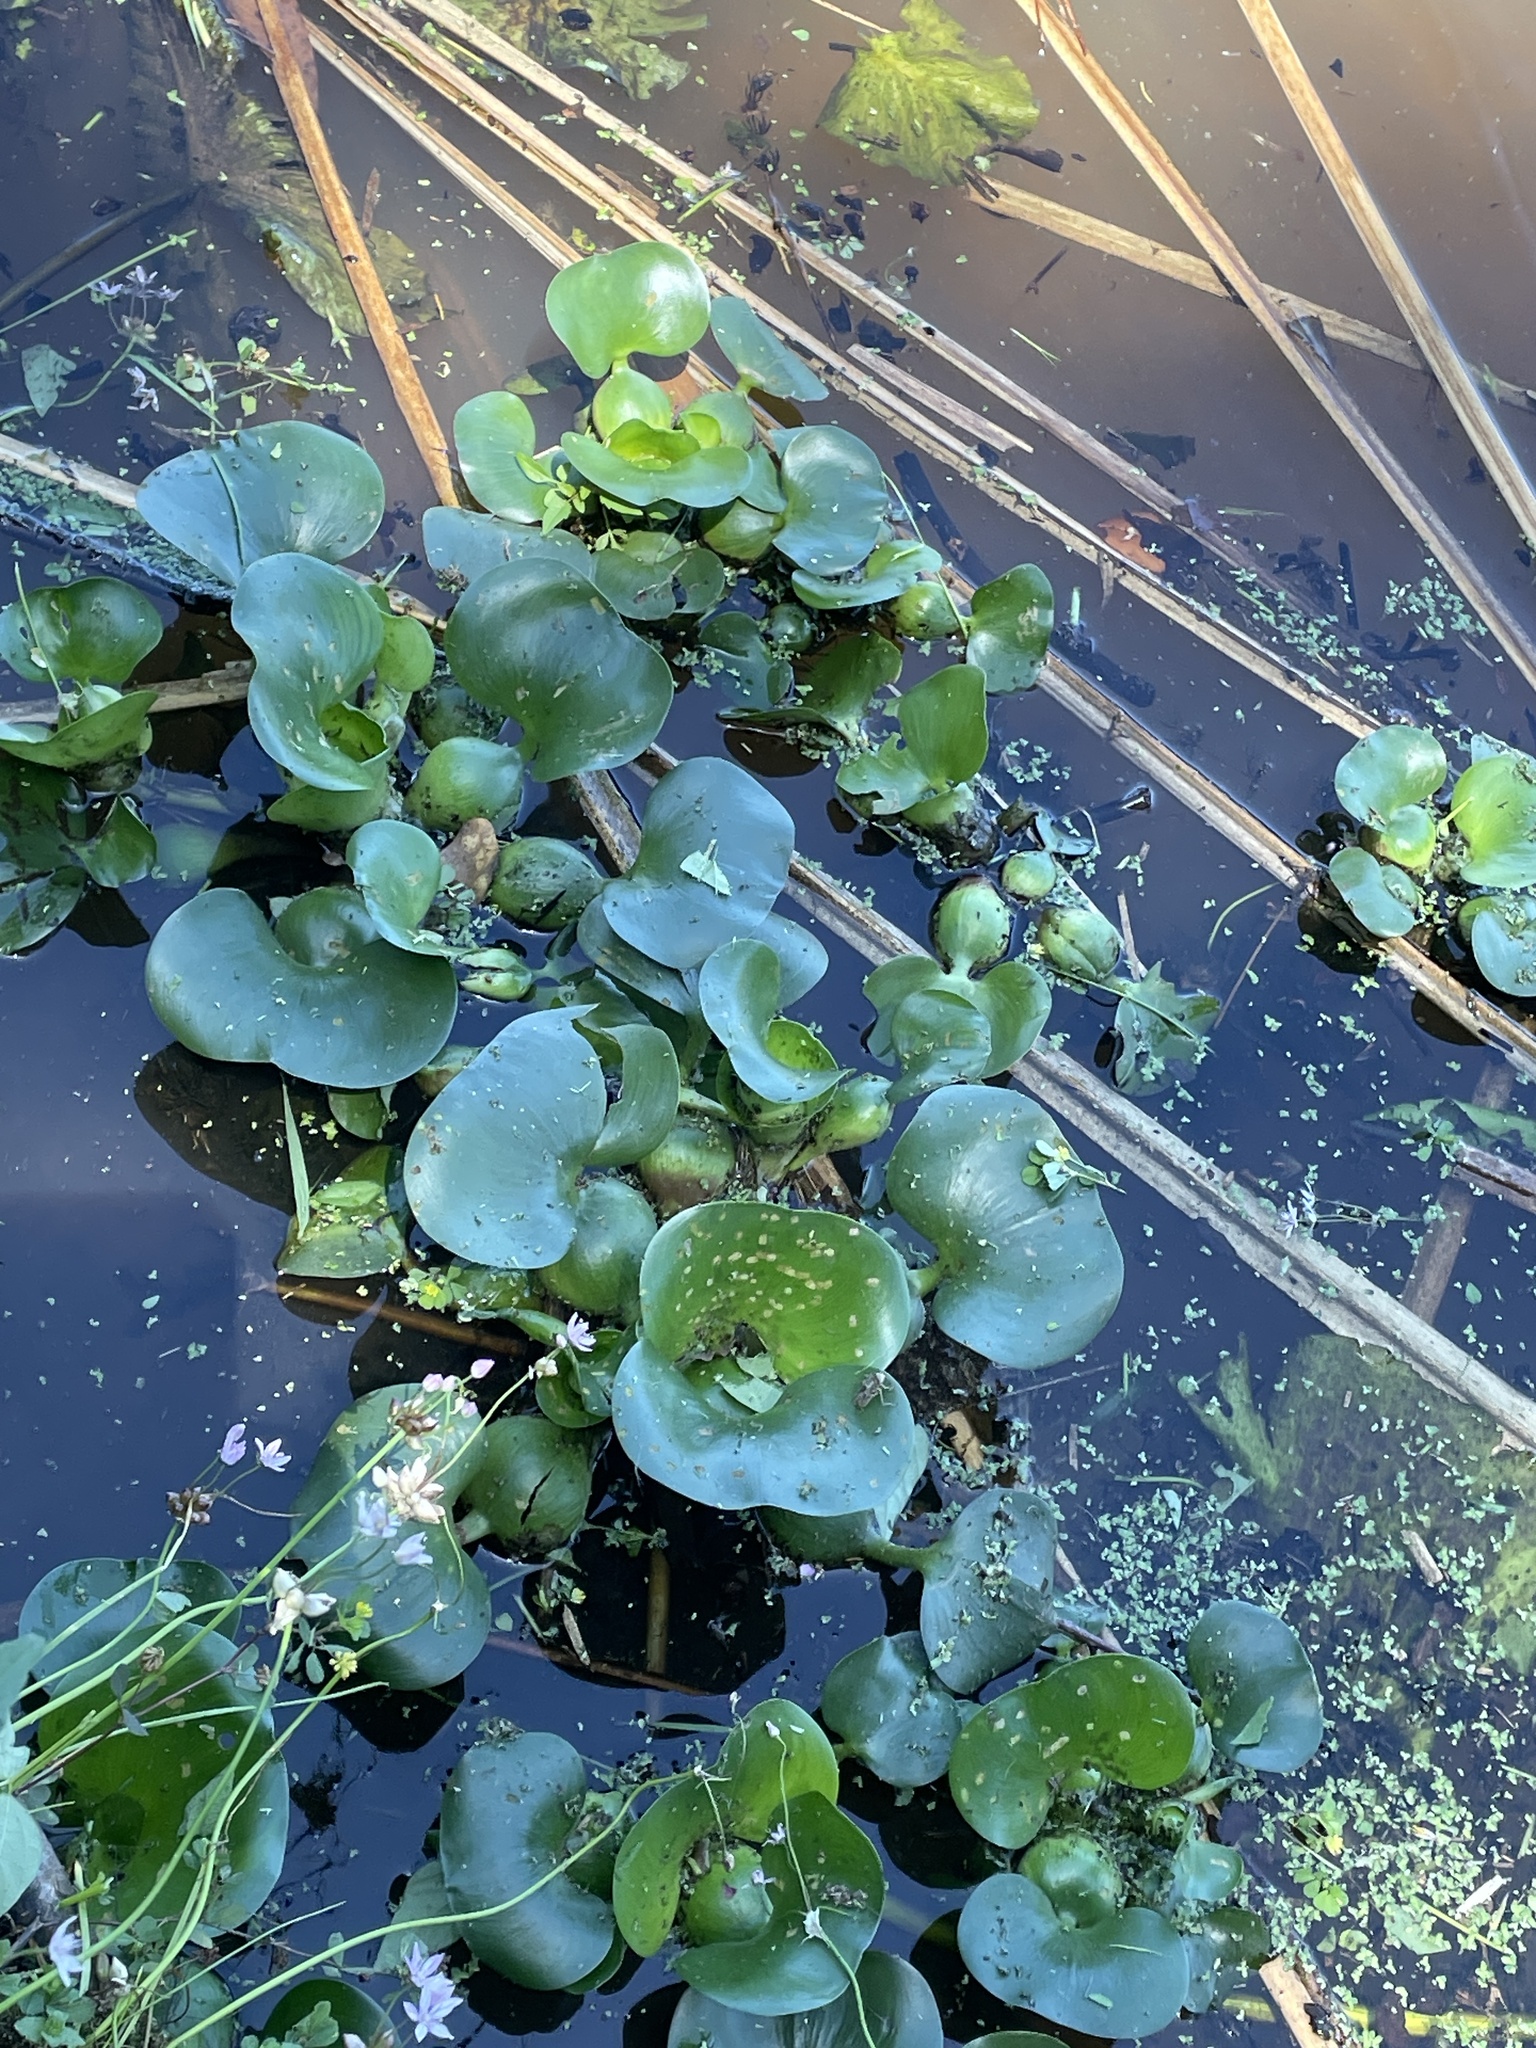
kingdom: Plantae
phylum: Tracheophyta
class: Liliopsida
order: Commelinales
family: Pontederiaceae
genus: Pontederia
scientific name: Pontederia crassipes
